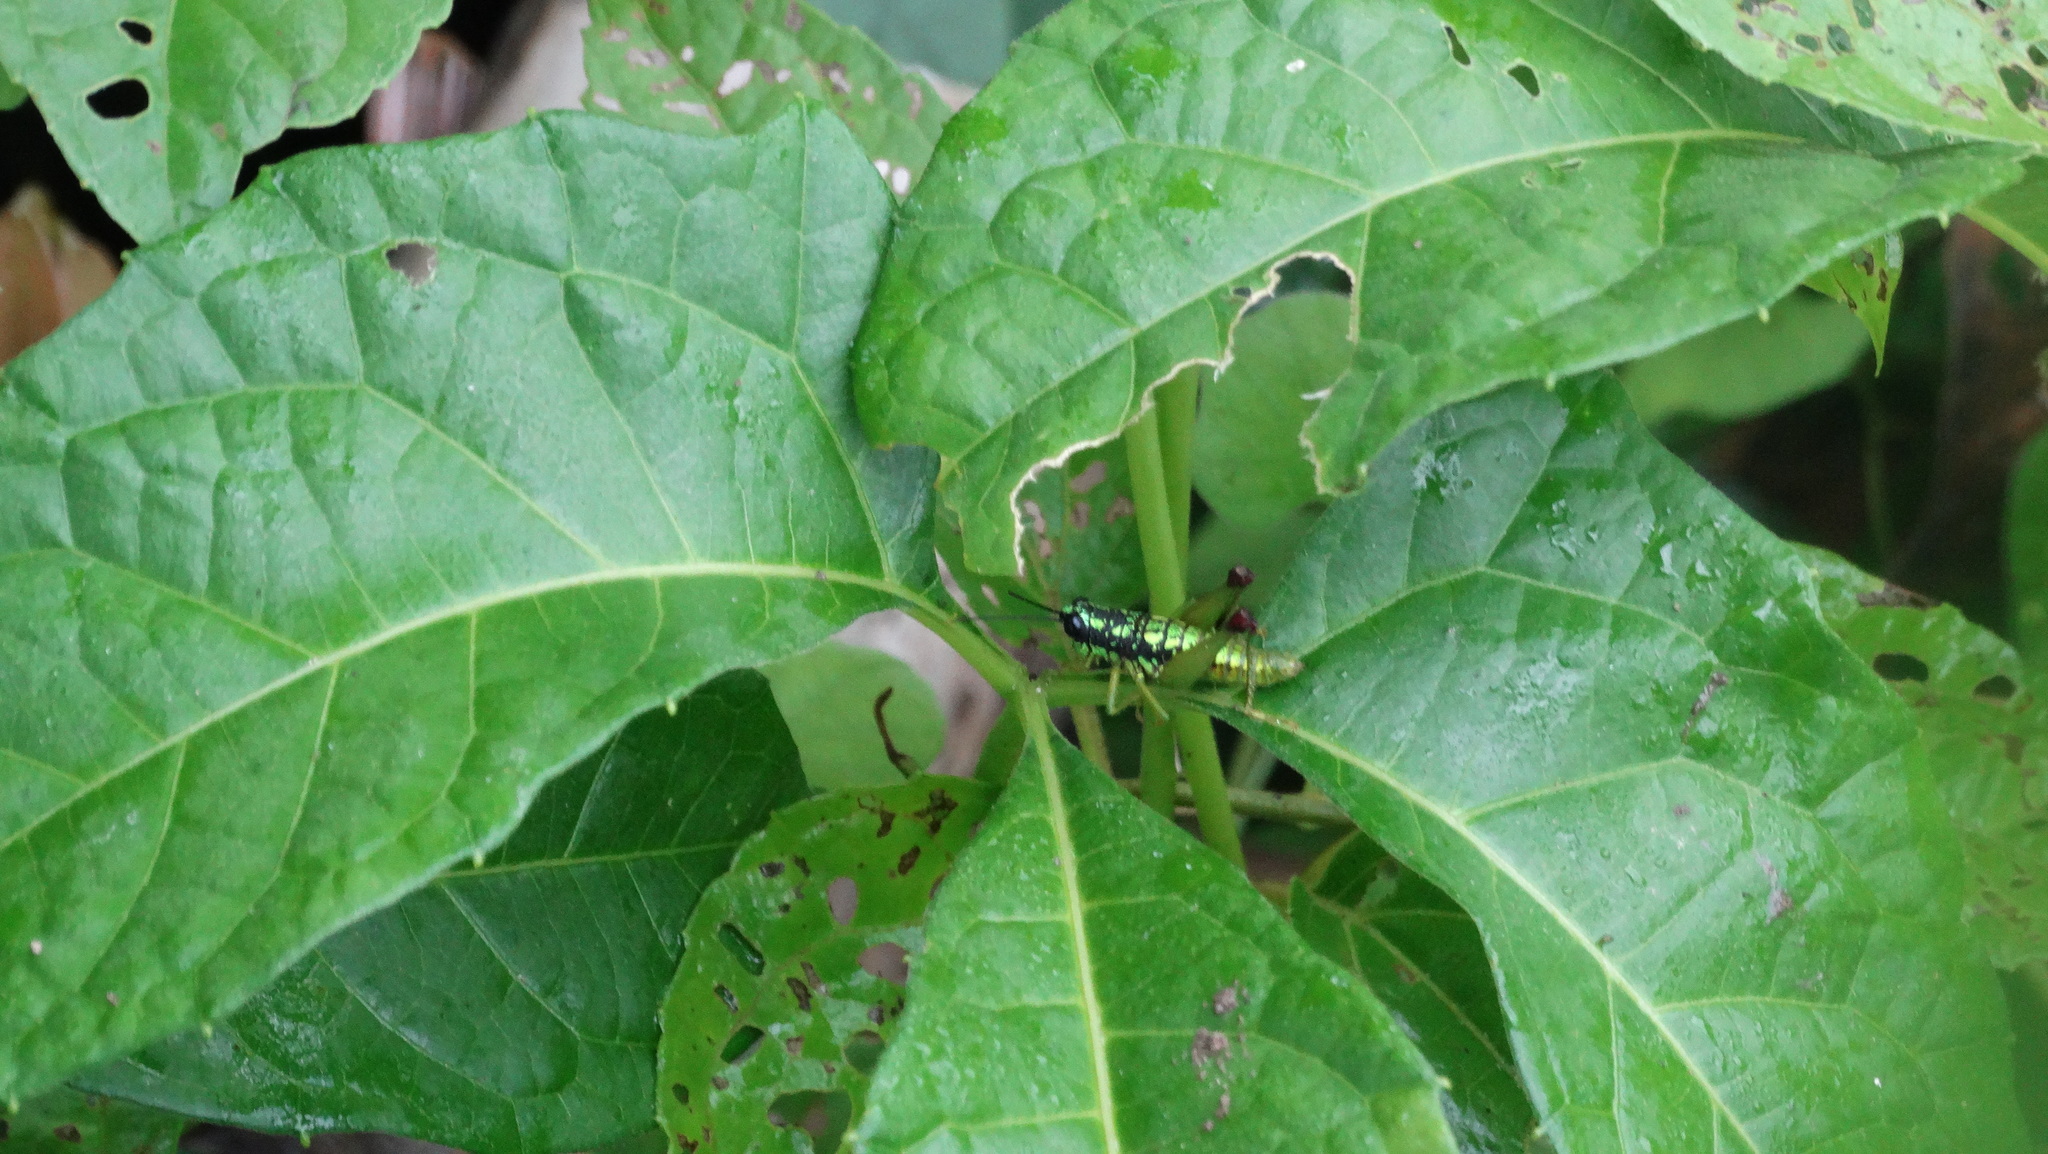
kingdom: Animalia
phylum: Arthropoda
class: Insecta
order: Orthoptera
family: Acrididae
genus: Galidacris
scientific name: Galidacris variabilis
